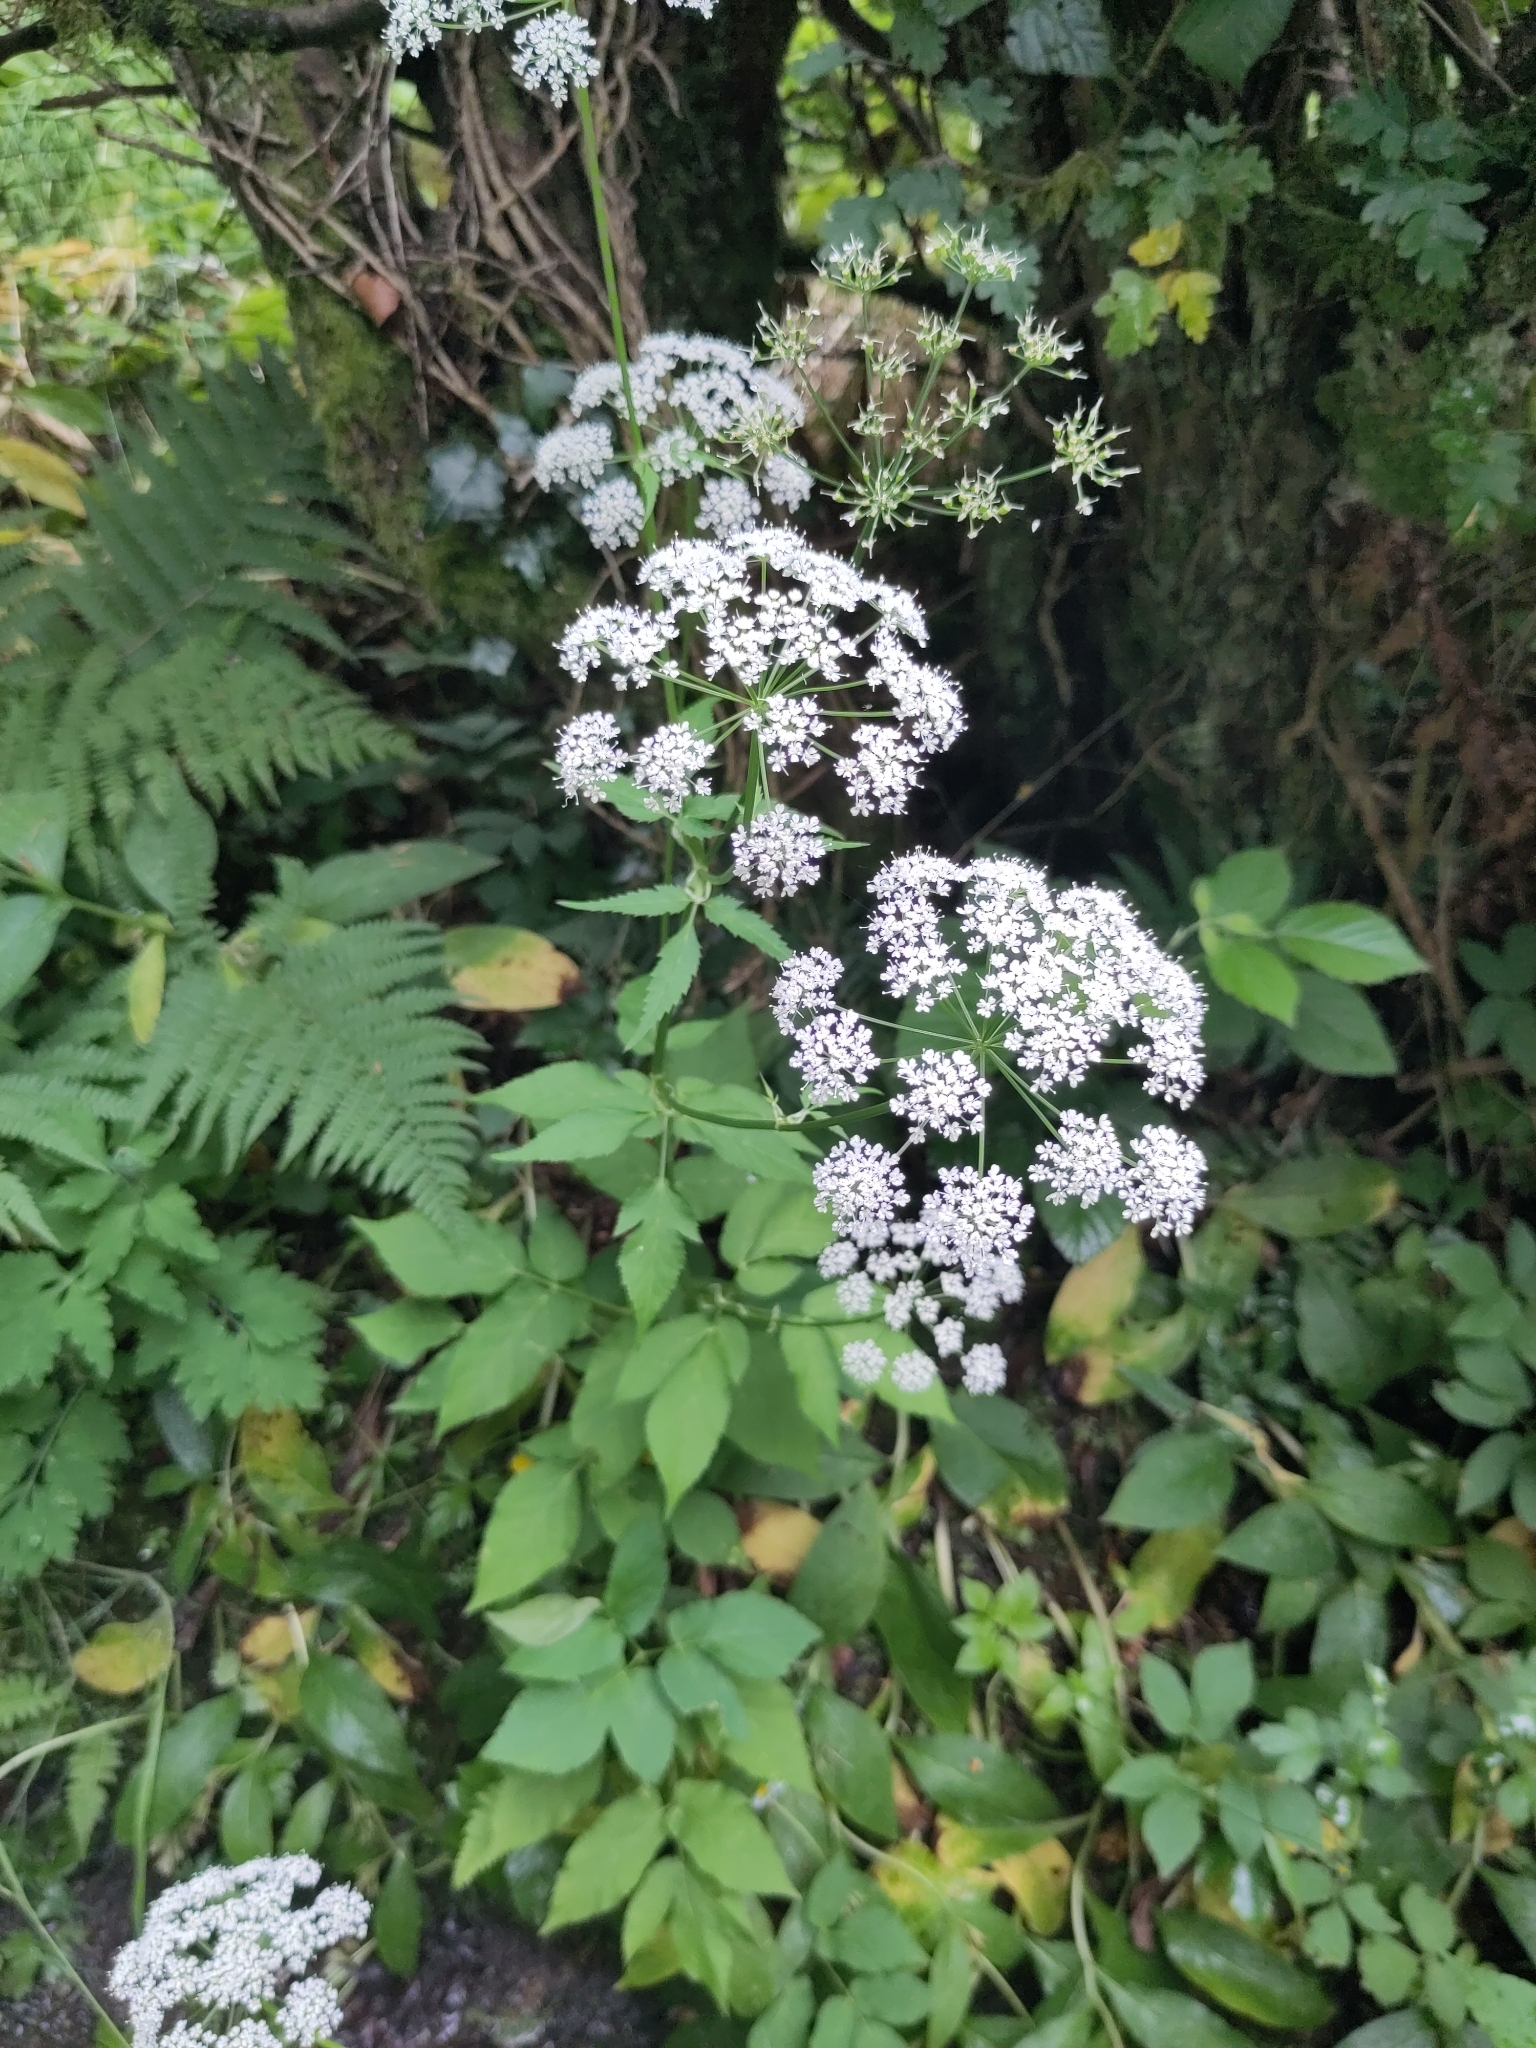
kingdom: Plantae
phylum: Tracheophyta
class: Magnoliopsida
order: Apiales
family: Apiaceae
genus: Aegopodium
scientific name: Aegopodium podagraria
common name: Ground-elder
